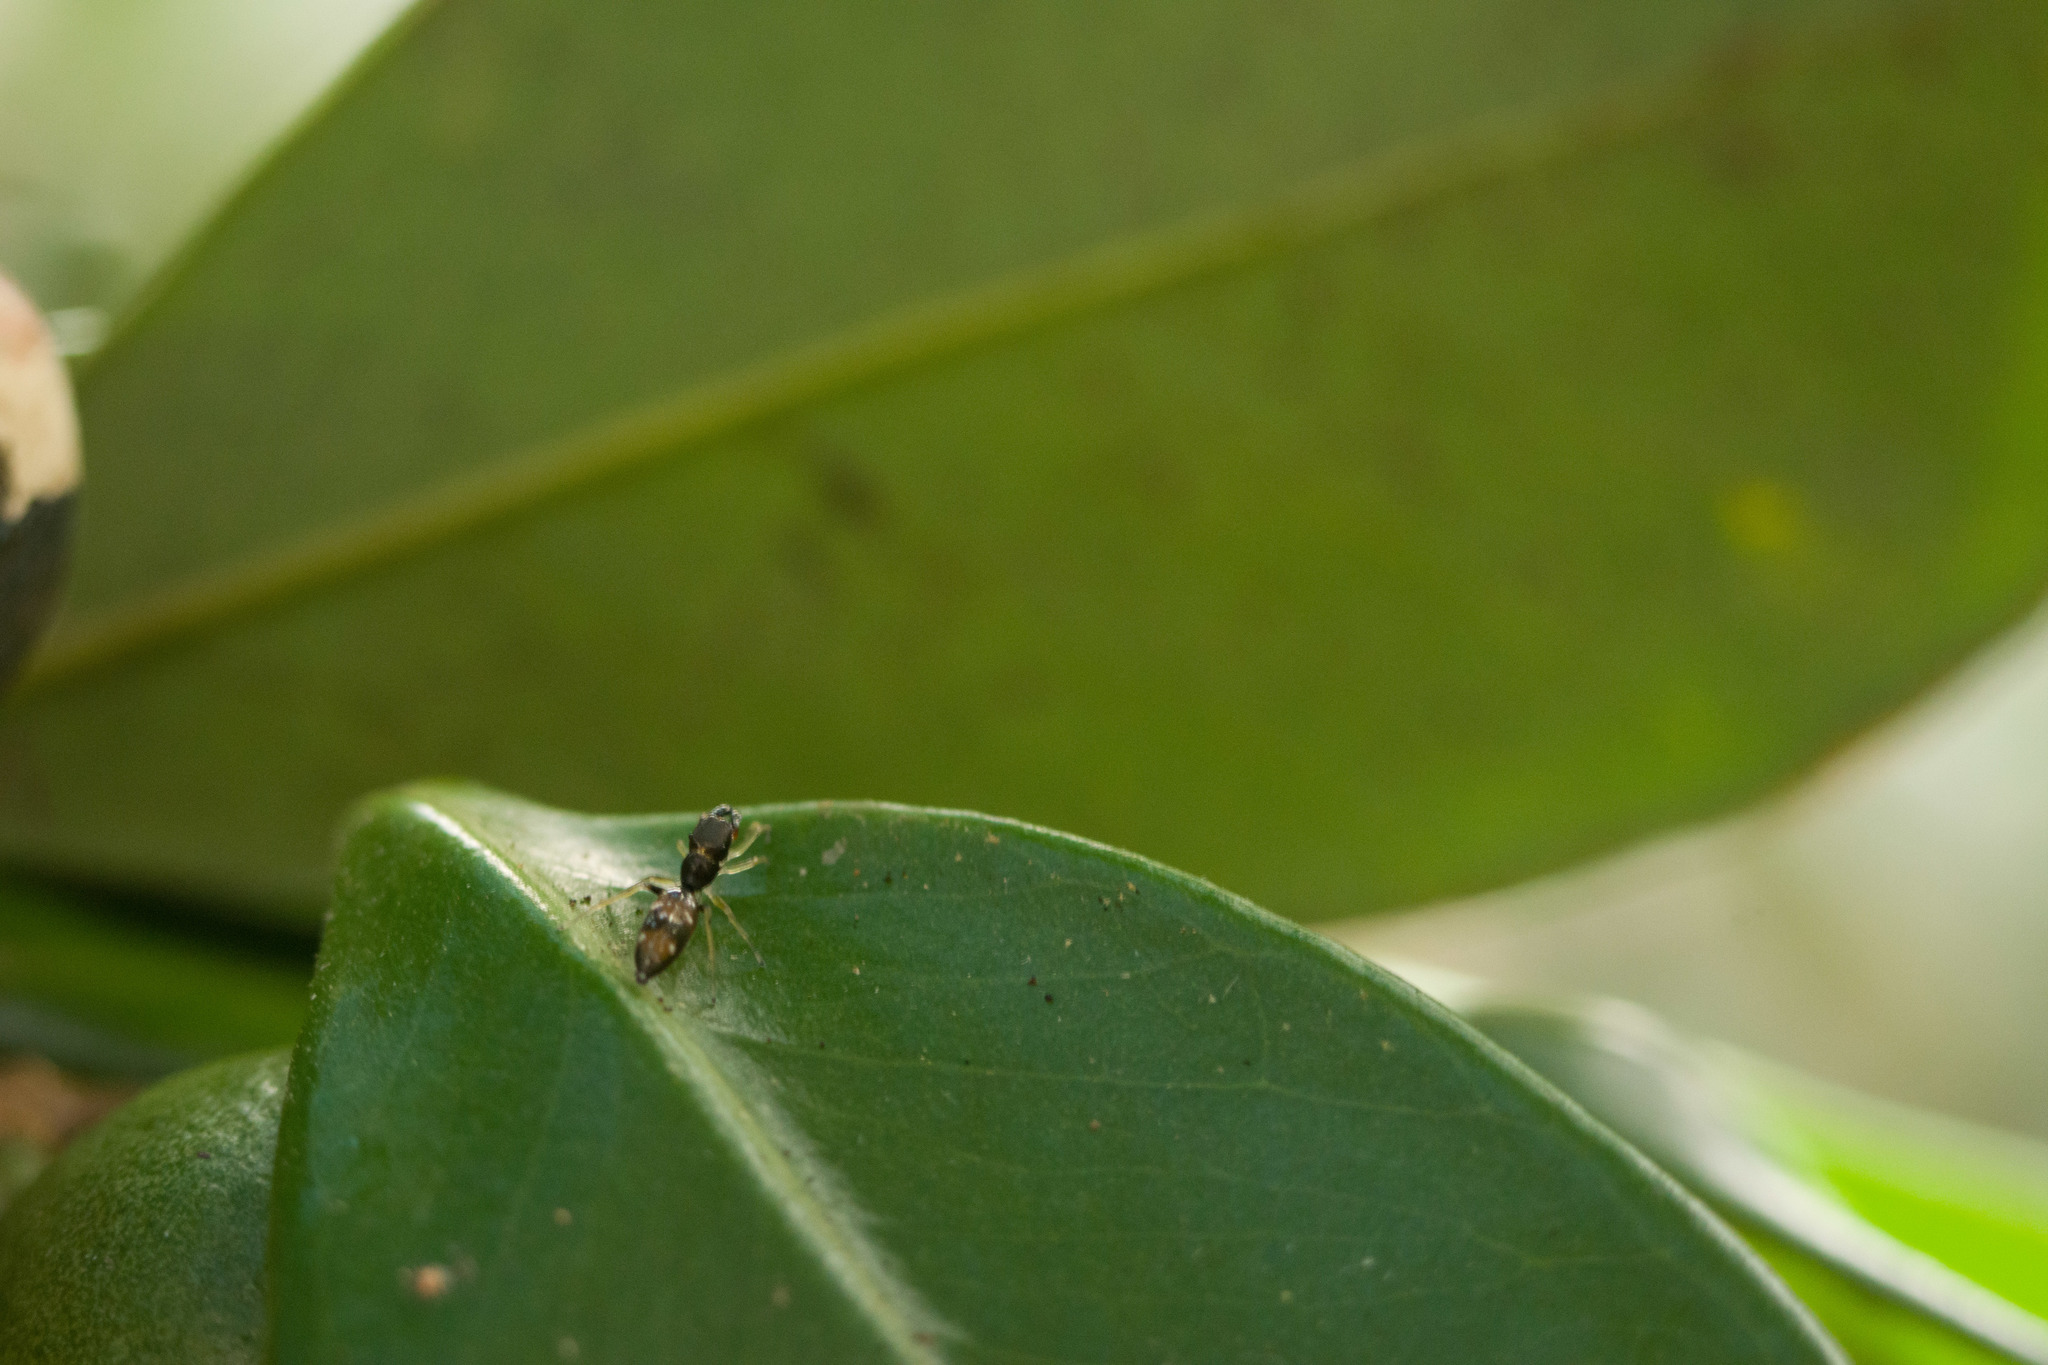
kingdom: Animalia
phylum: Arthropoda
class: Arachnida
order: Araneae
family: Salticidae
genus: Myrmarachne
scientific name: Myrmarachne nigella
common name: Jumping spider
